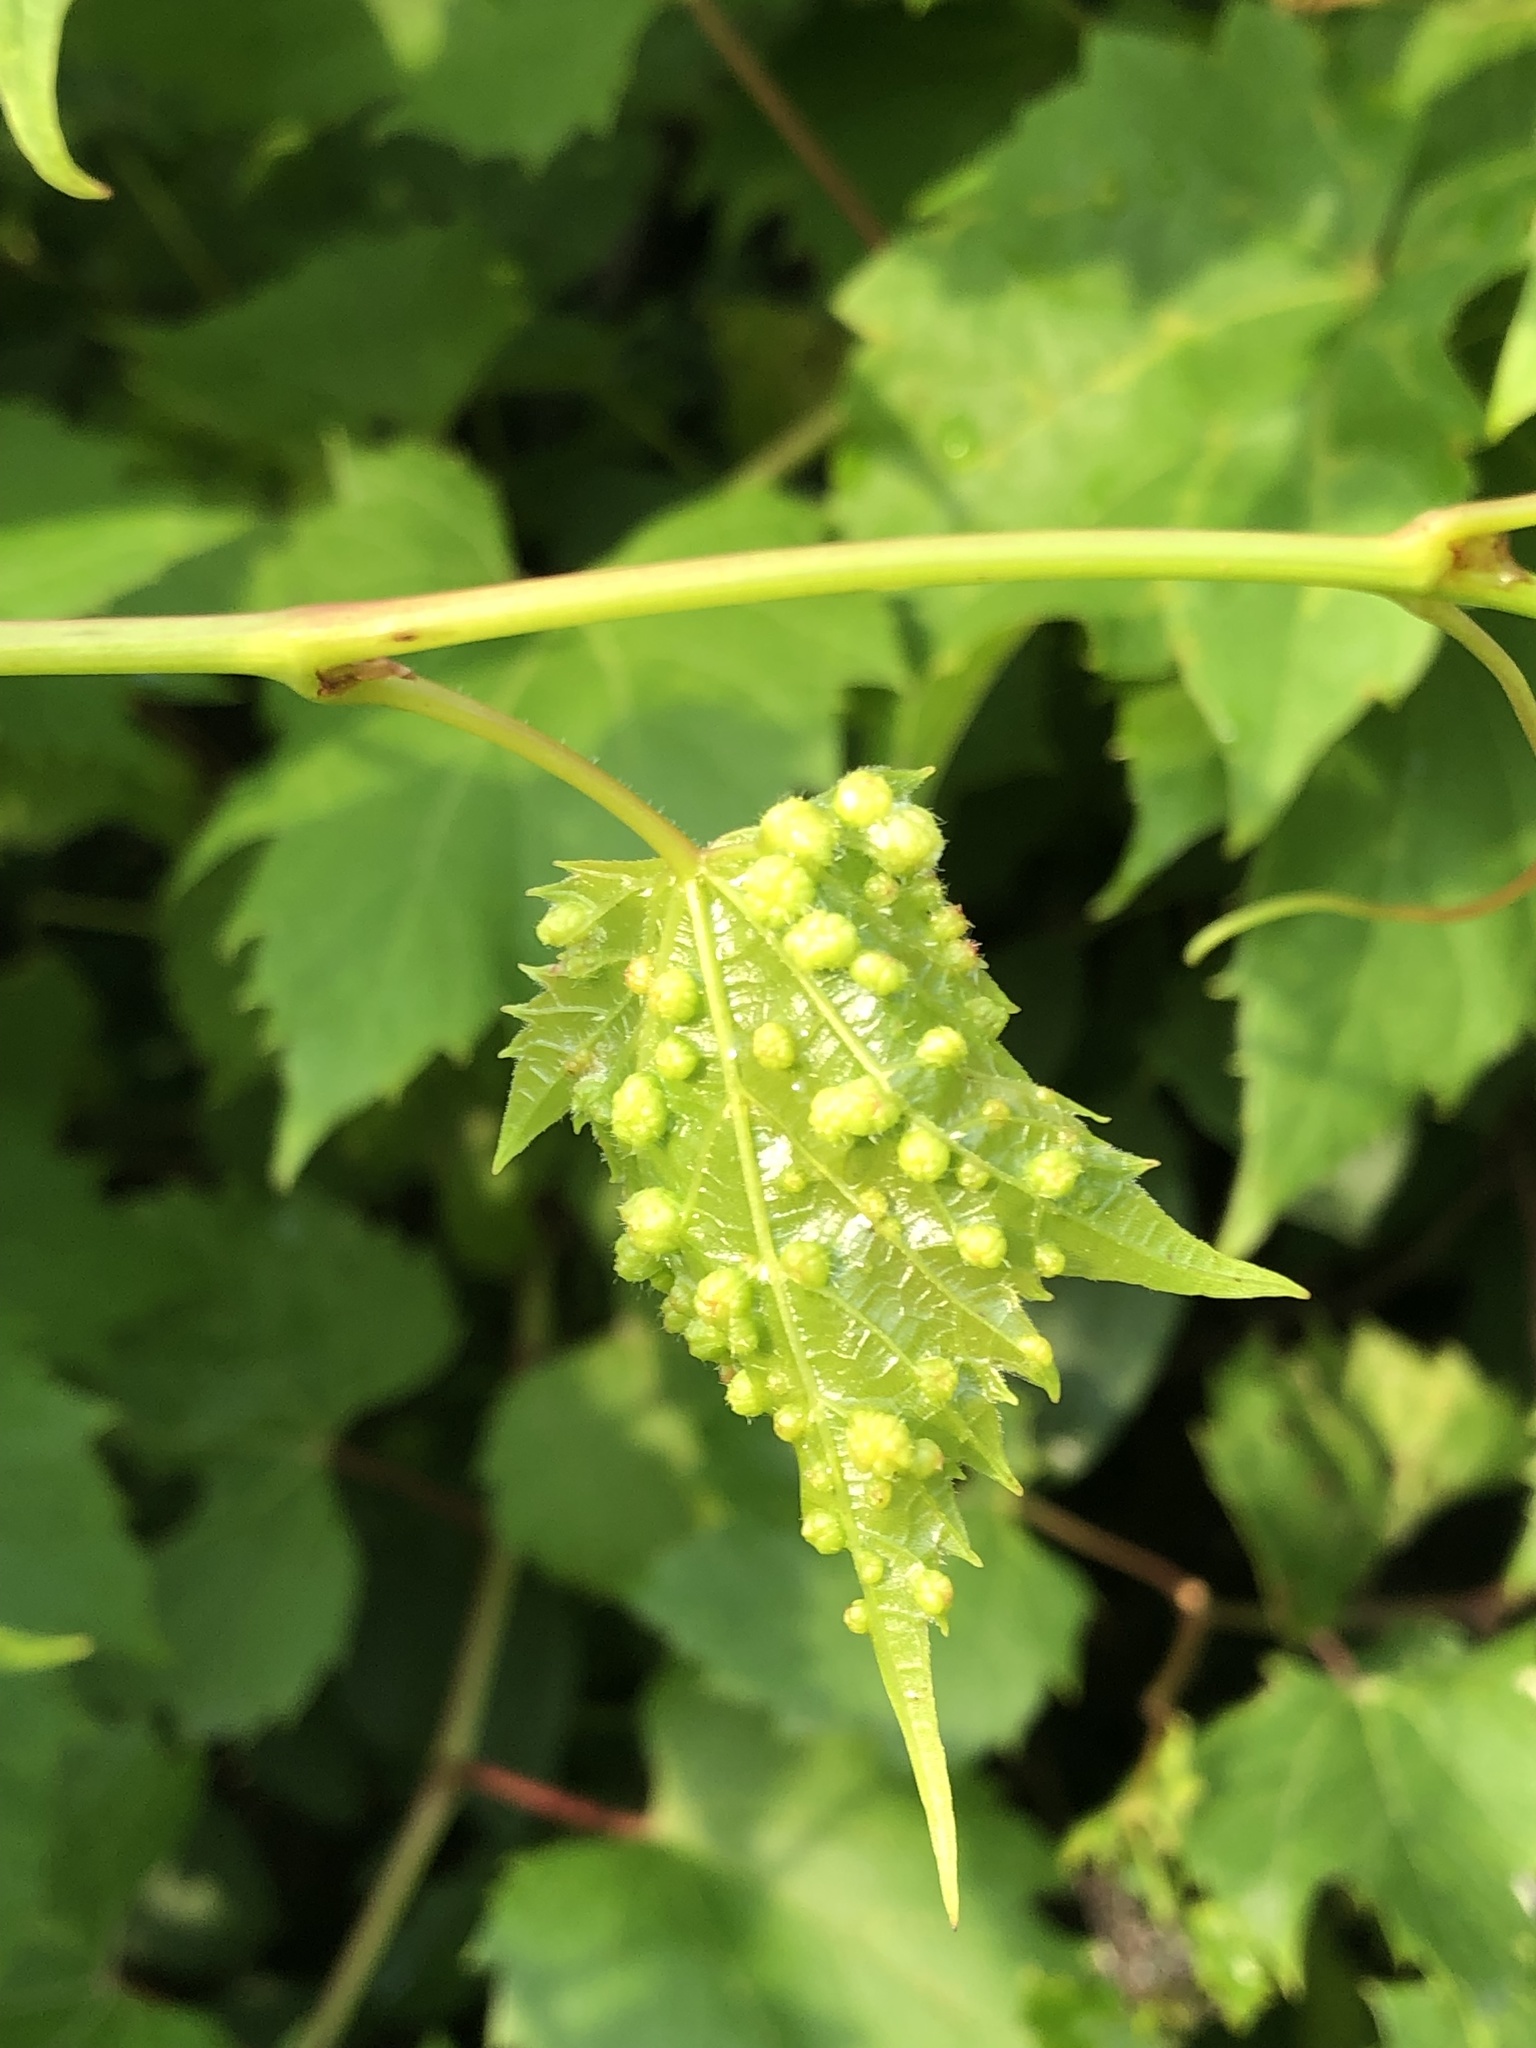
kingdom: Animalia
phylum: Arthropoda
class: Insecta
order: Hemiptera
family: Phylloxeridae
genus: Daktulosphaira
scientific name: Daktulosphaira vitifoliae
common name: Grape phylloxera
